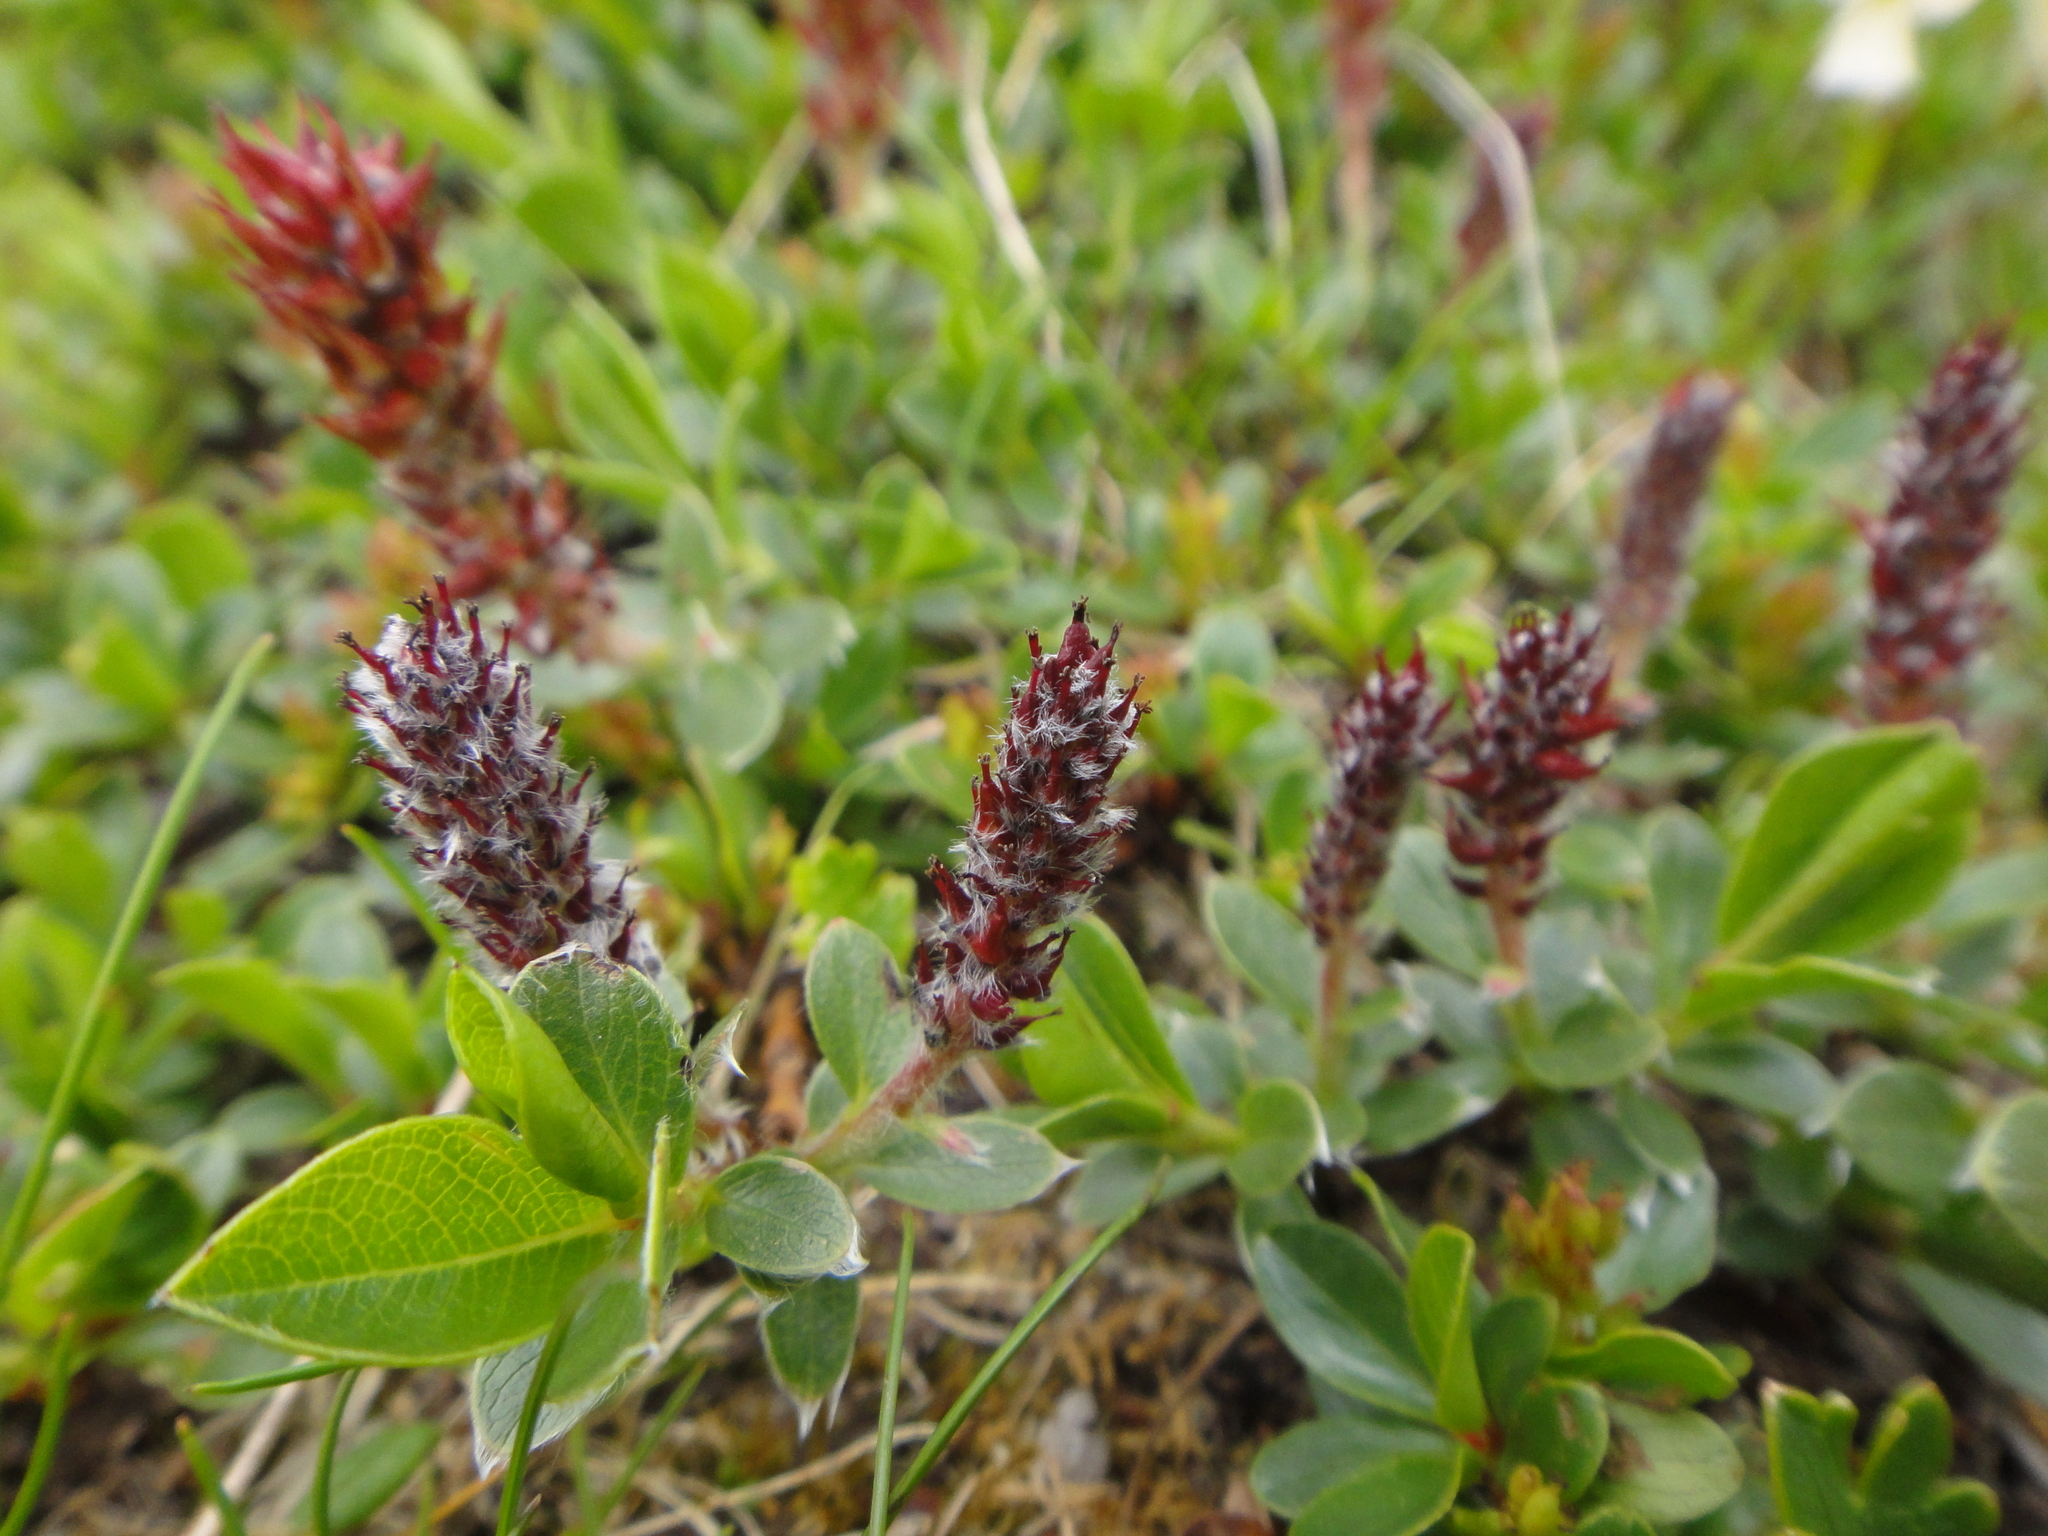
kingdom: Plantae
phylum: Tracheophyta
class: Magnoliopsida
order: Malpighiales
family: Salicaceae
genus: Salix
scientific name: Salix alpina
